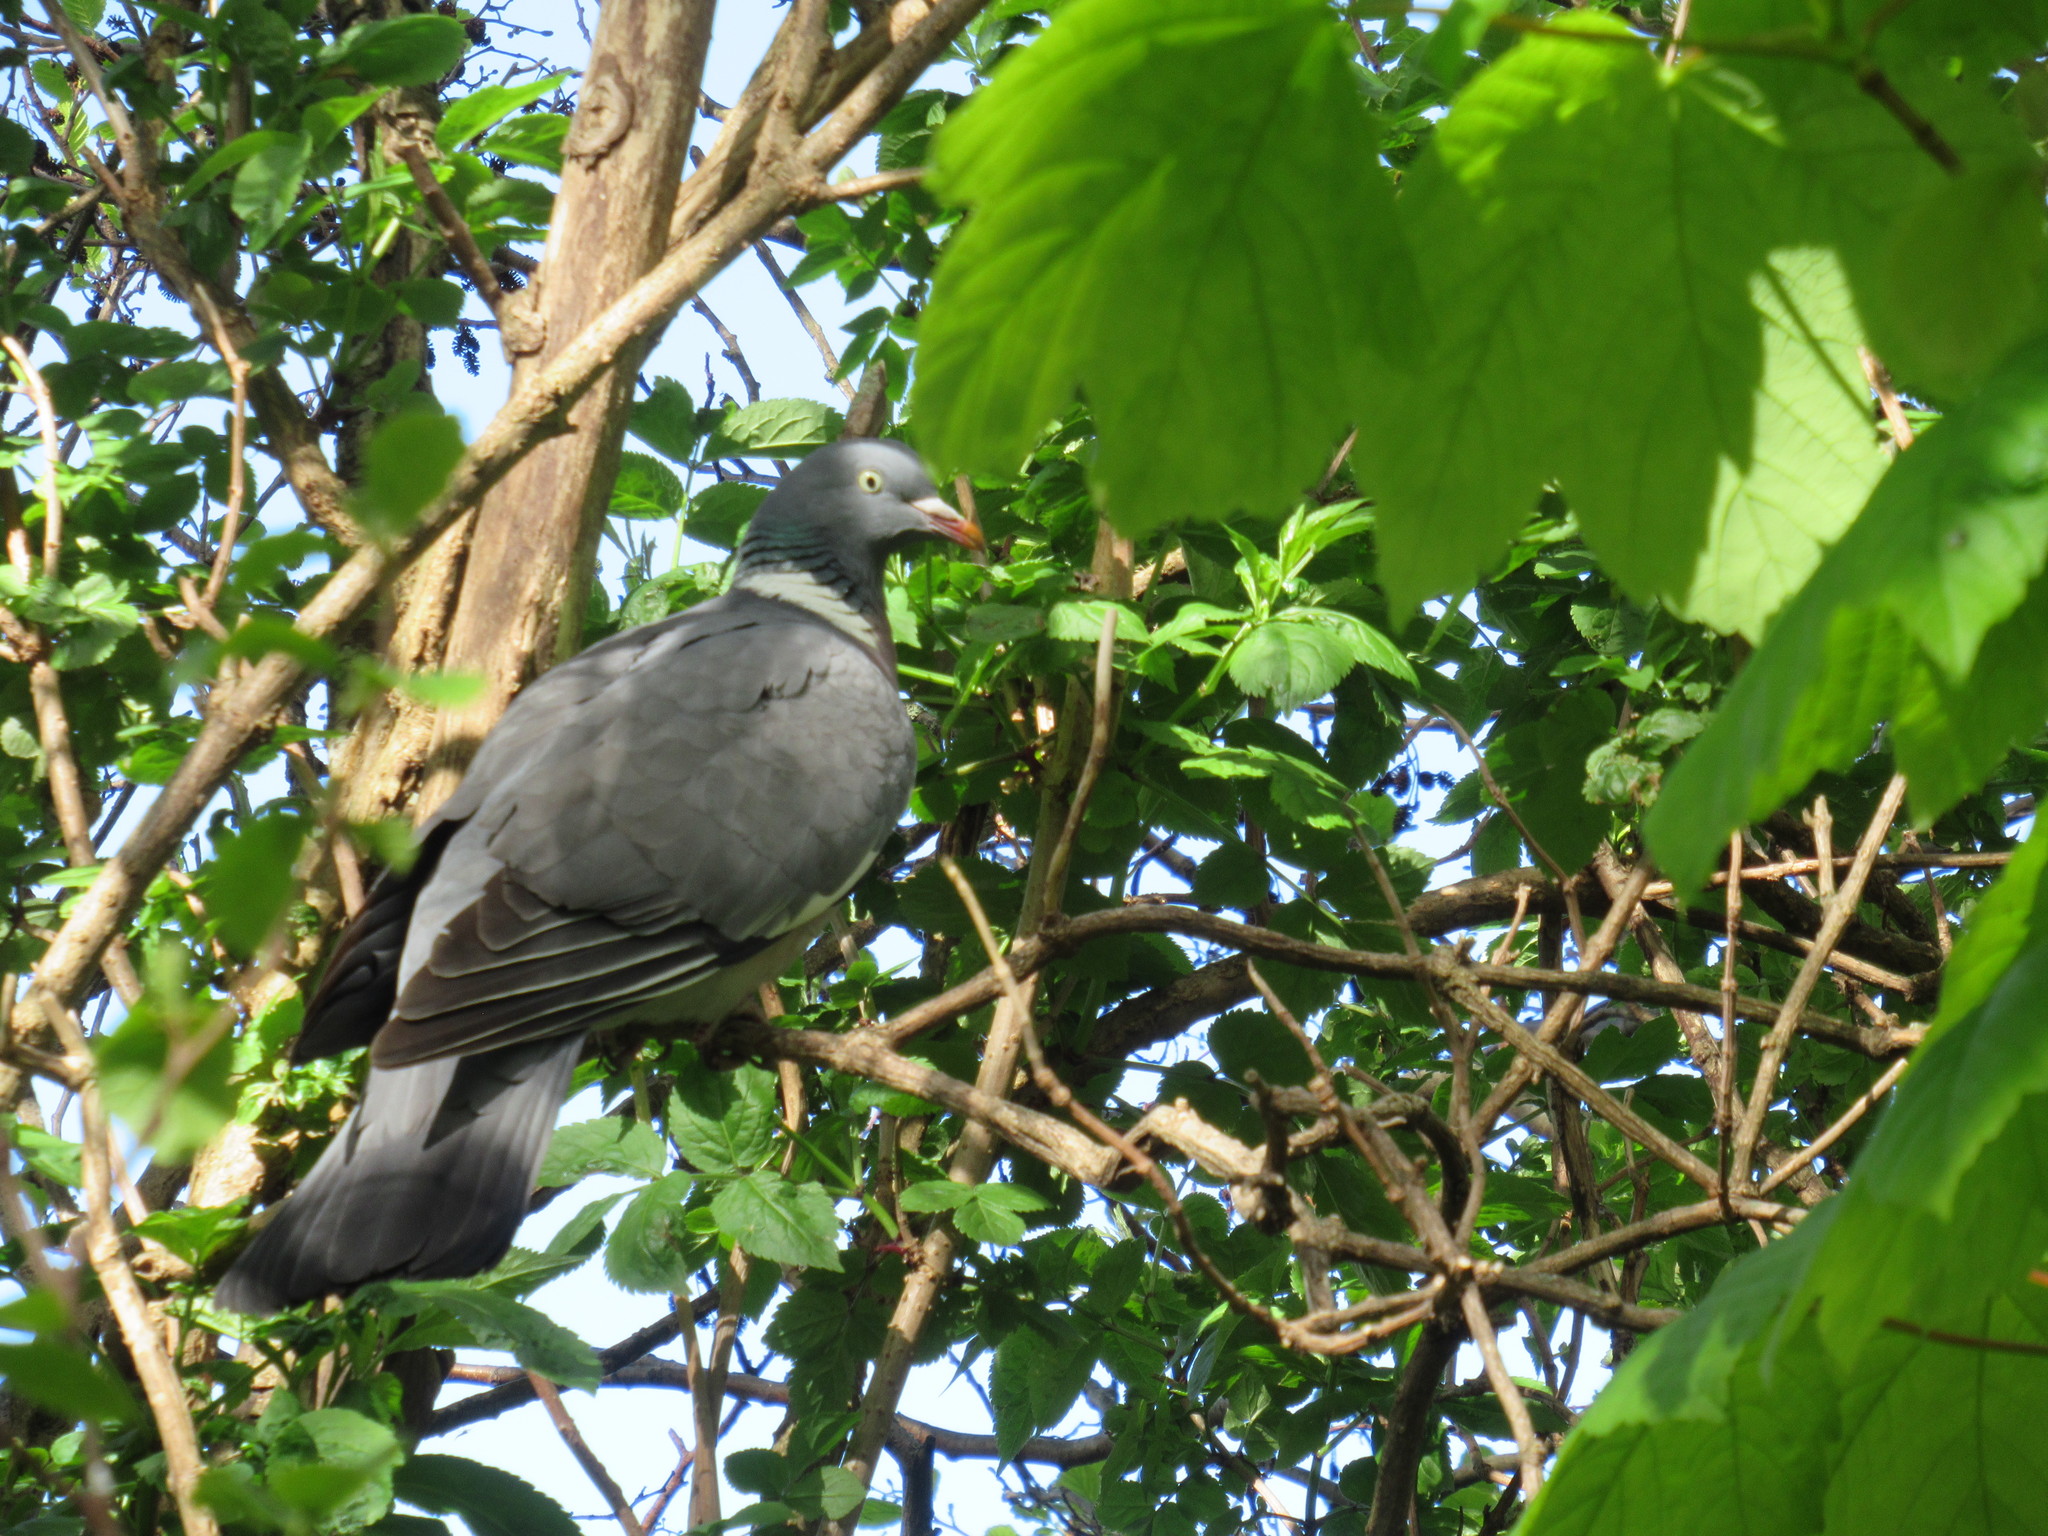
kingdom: Animalia
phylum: Chordata
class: Aves
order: Columbiformes
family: Columbidae
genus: Columba
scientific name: Columba palumbus
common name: Common wood pigeon
